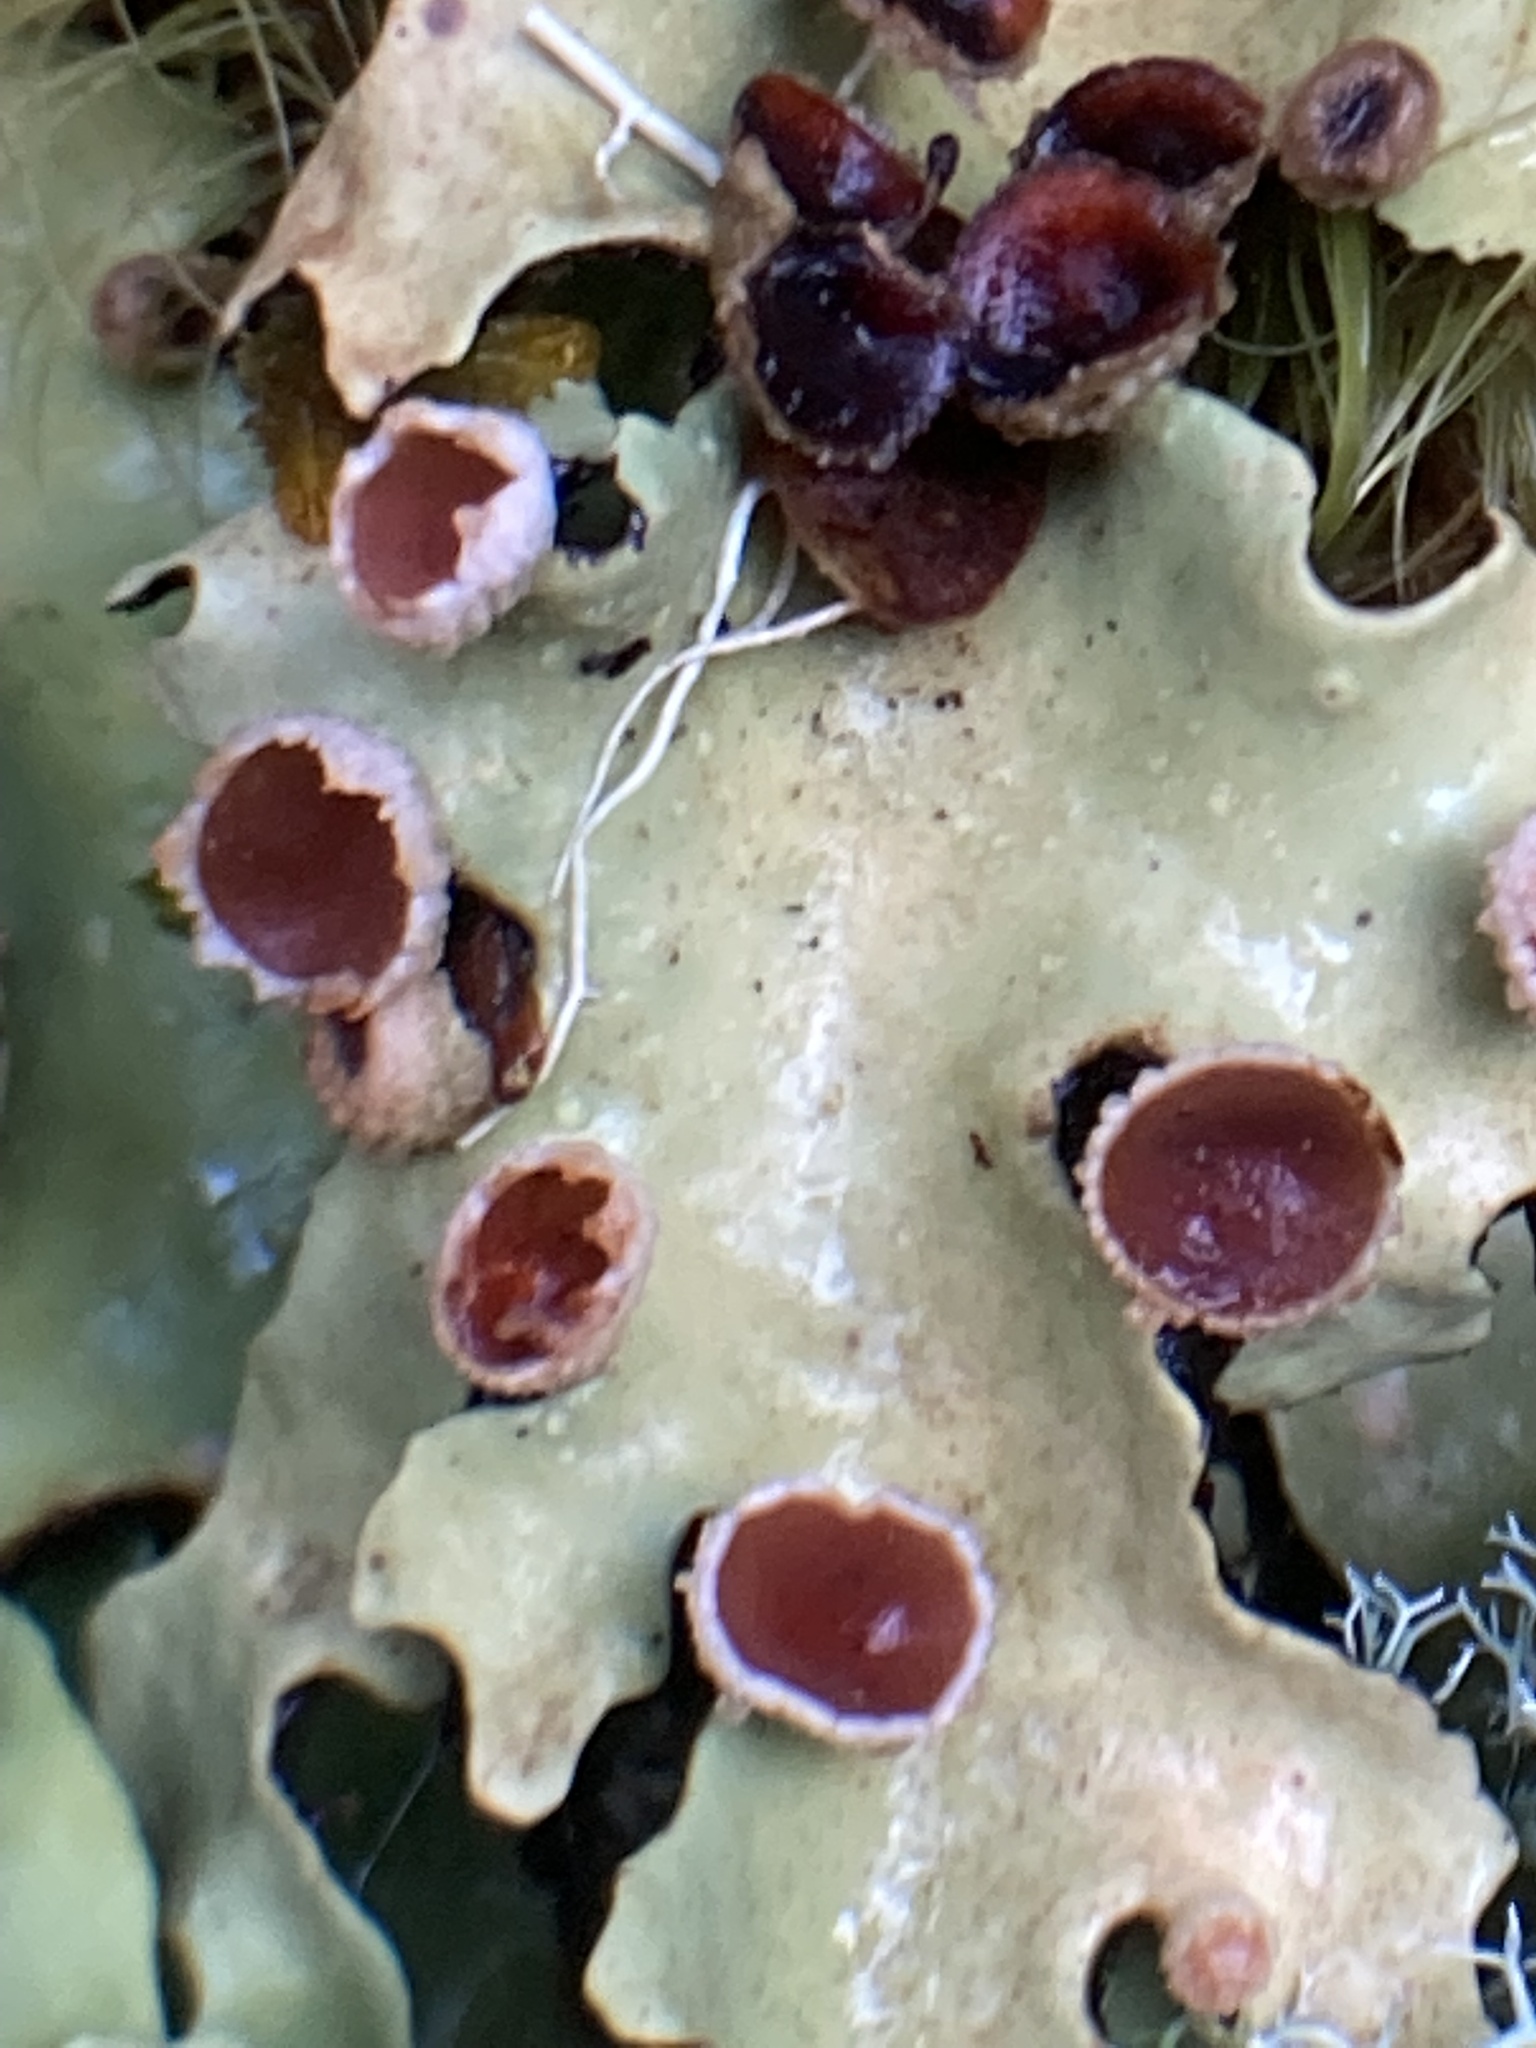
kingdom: Fungi
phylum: Ascomycota
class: Lecanoromycetes
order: Peltigerales
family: Lobariaceae
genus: Pseudocyphellaria
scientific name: Pseudocyphellaria homeophylla
